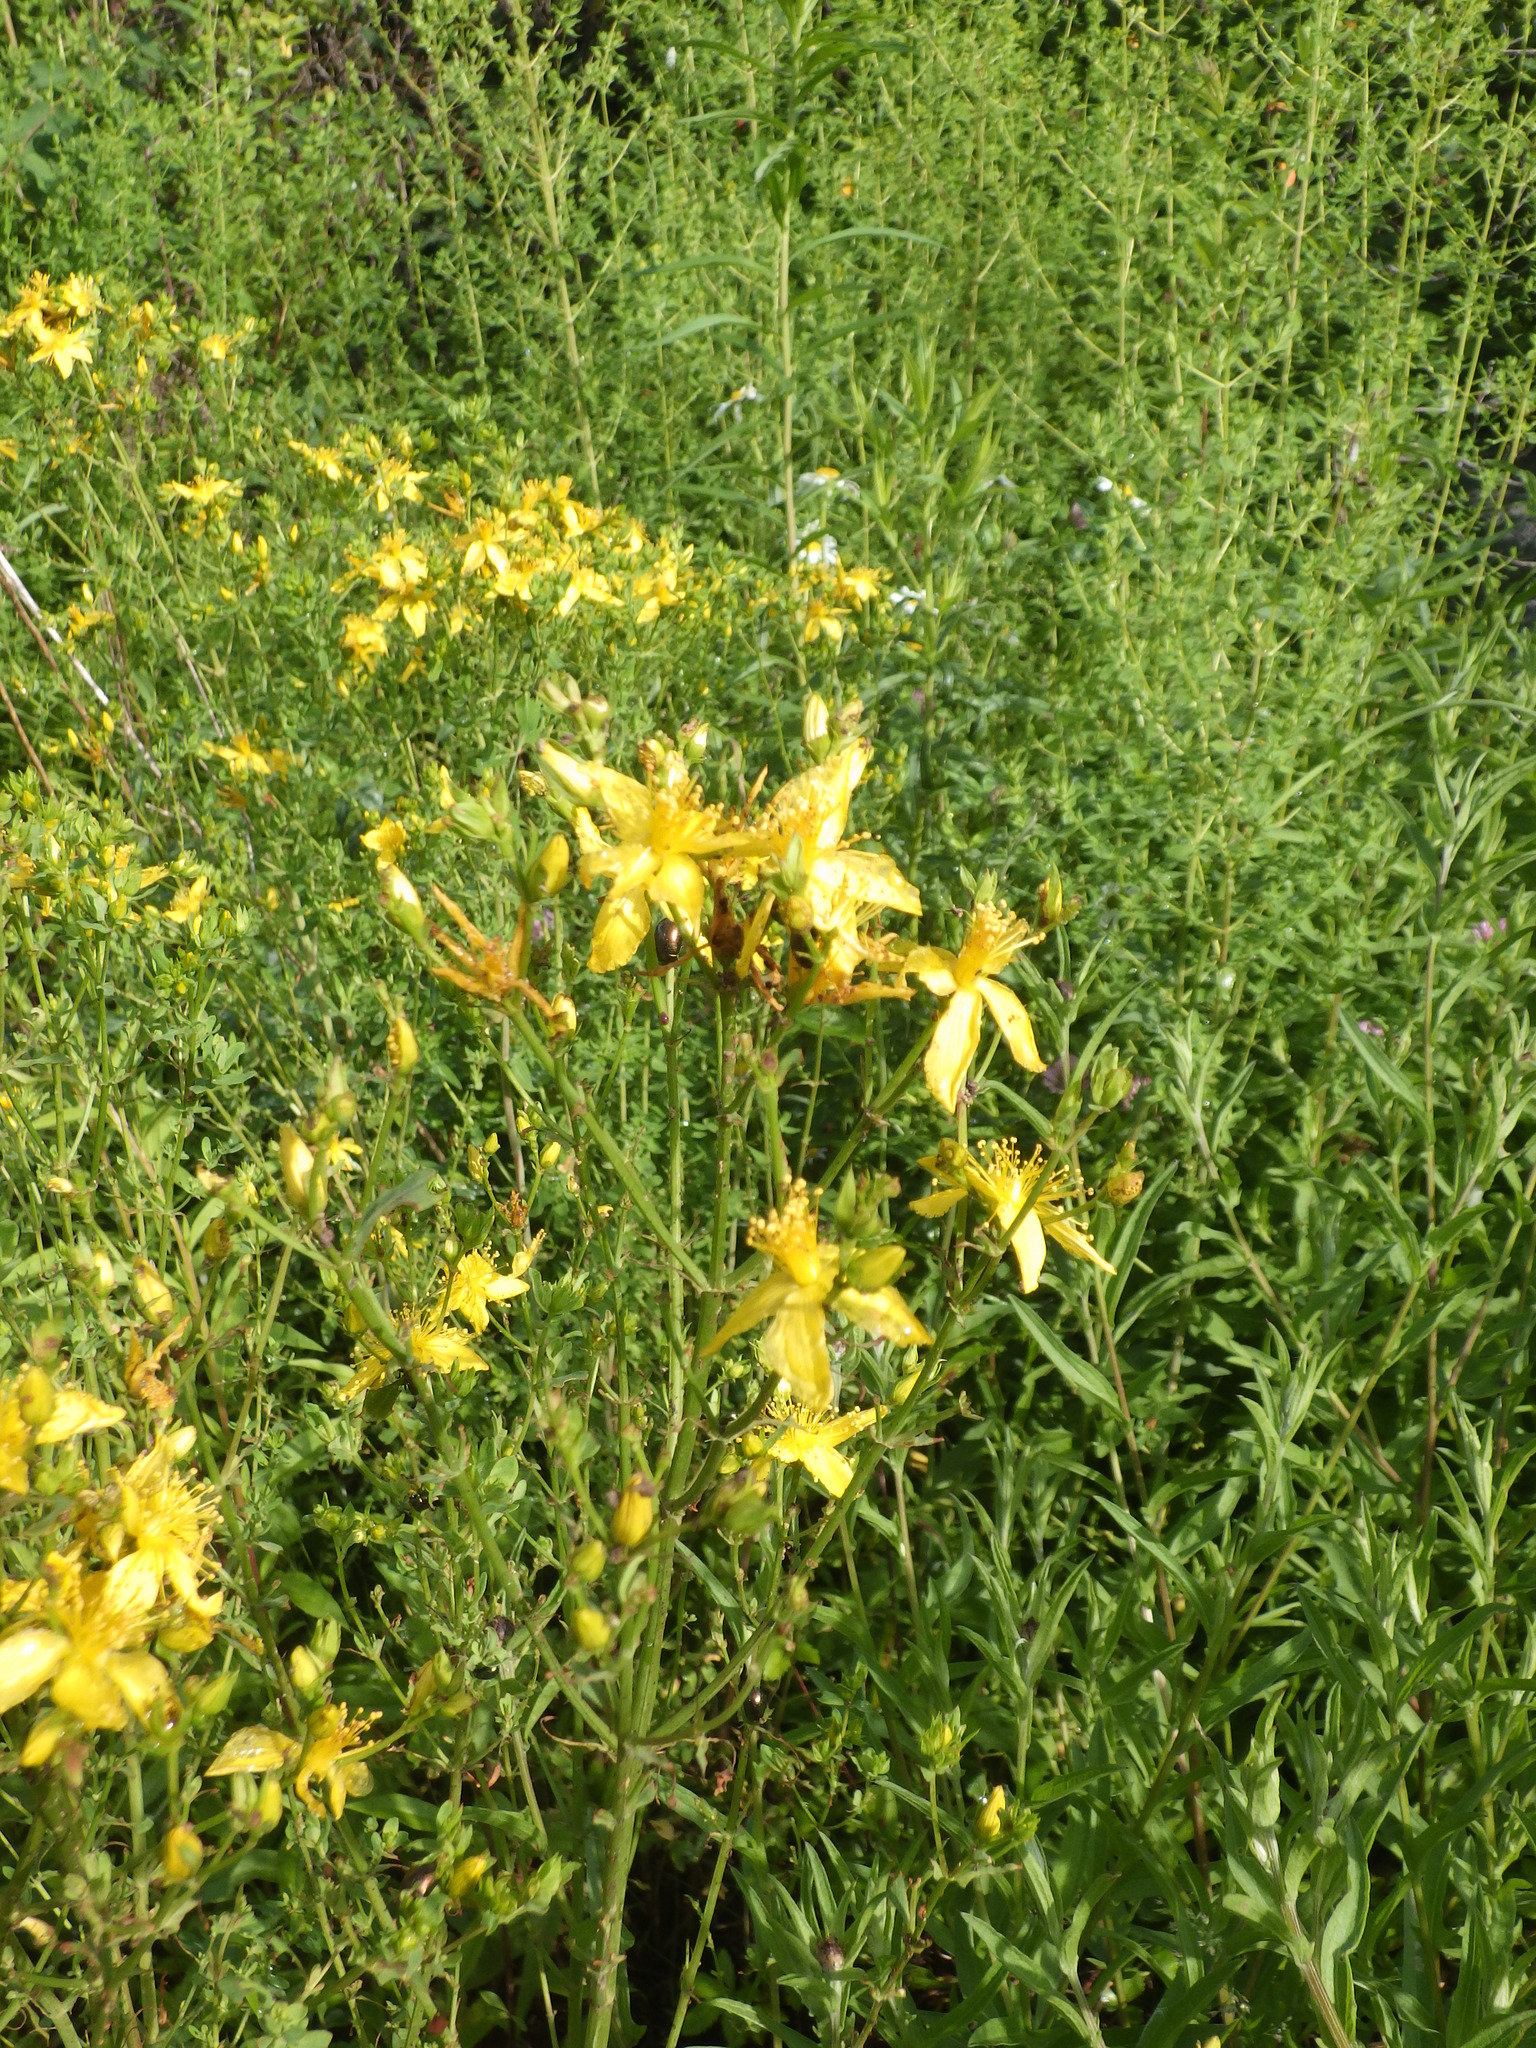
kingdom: Plantae
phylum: Tracheophyta
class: Magnoliopsida
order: Malpighiales
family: Hypericaceae
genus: Hypericum
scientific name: Hypericum perforatum
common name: Common st. johnswort
